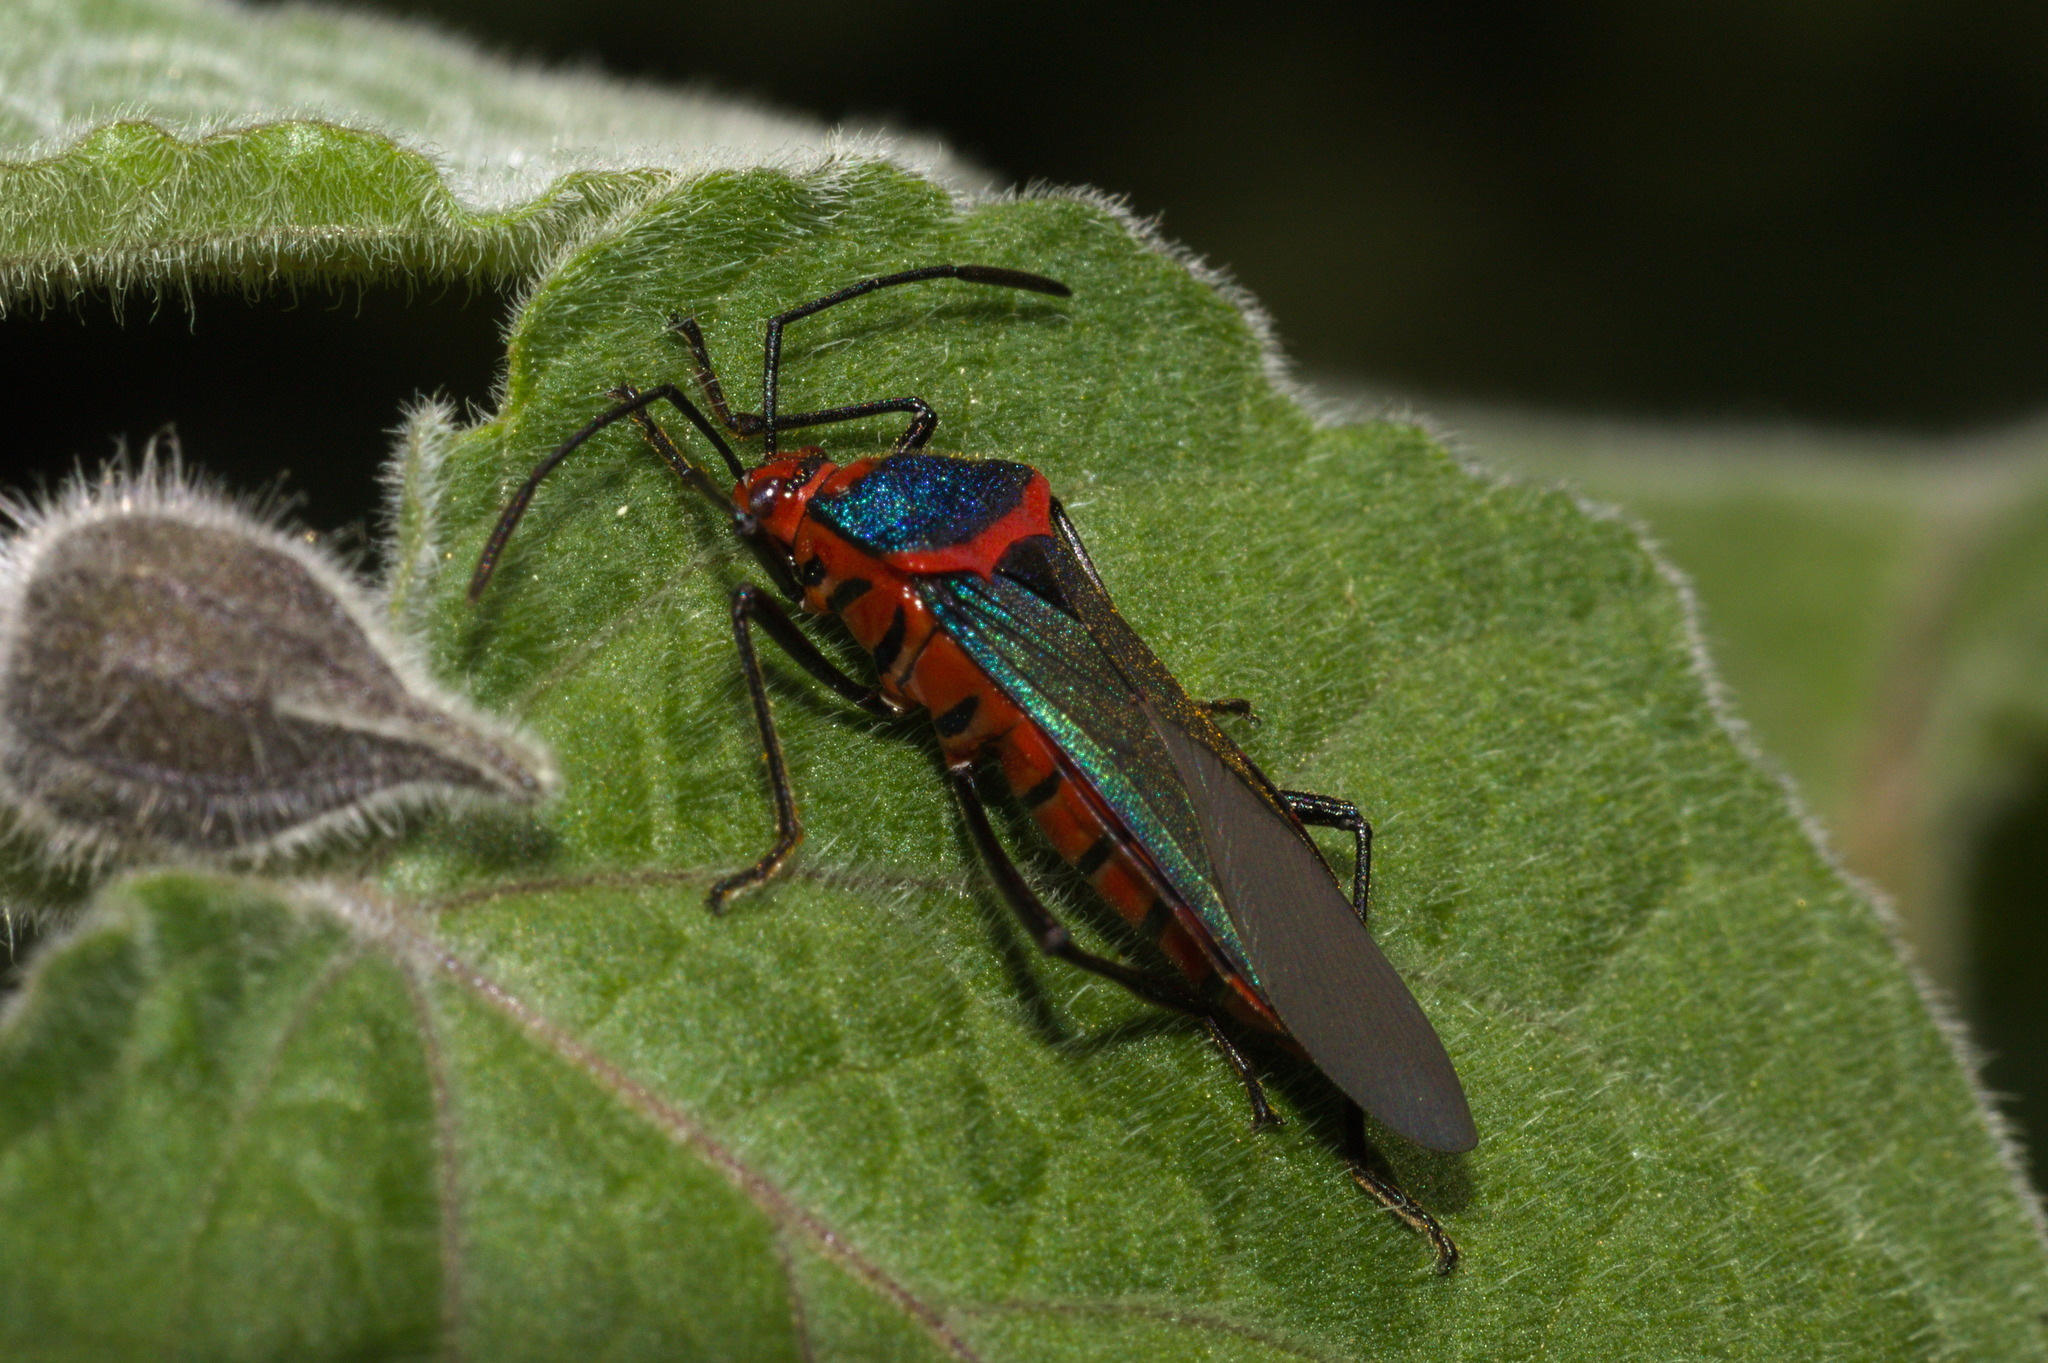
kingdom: Animalia
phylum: Arthropoda
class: Insecta
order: Hemiptera
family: Coreidae
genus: Sphictyrtus
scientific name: Sphictyrtus chrysis
